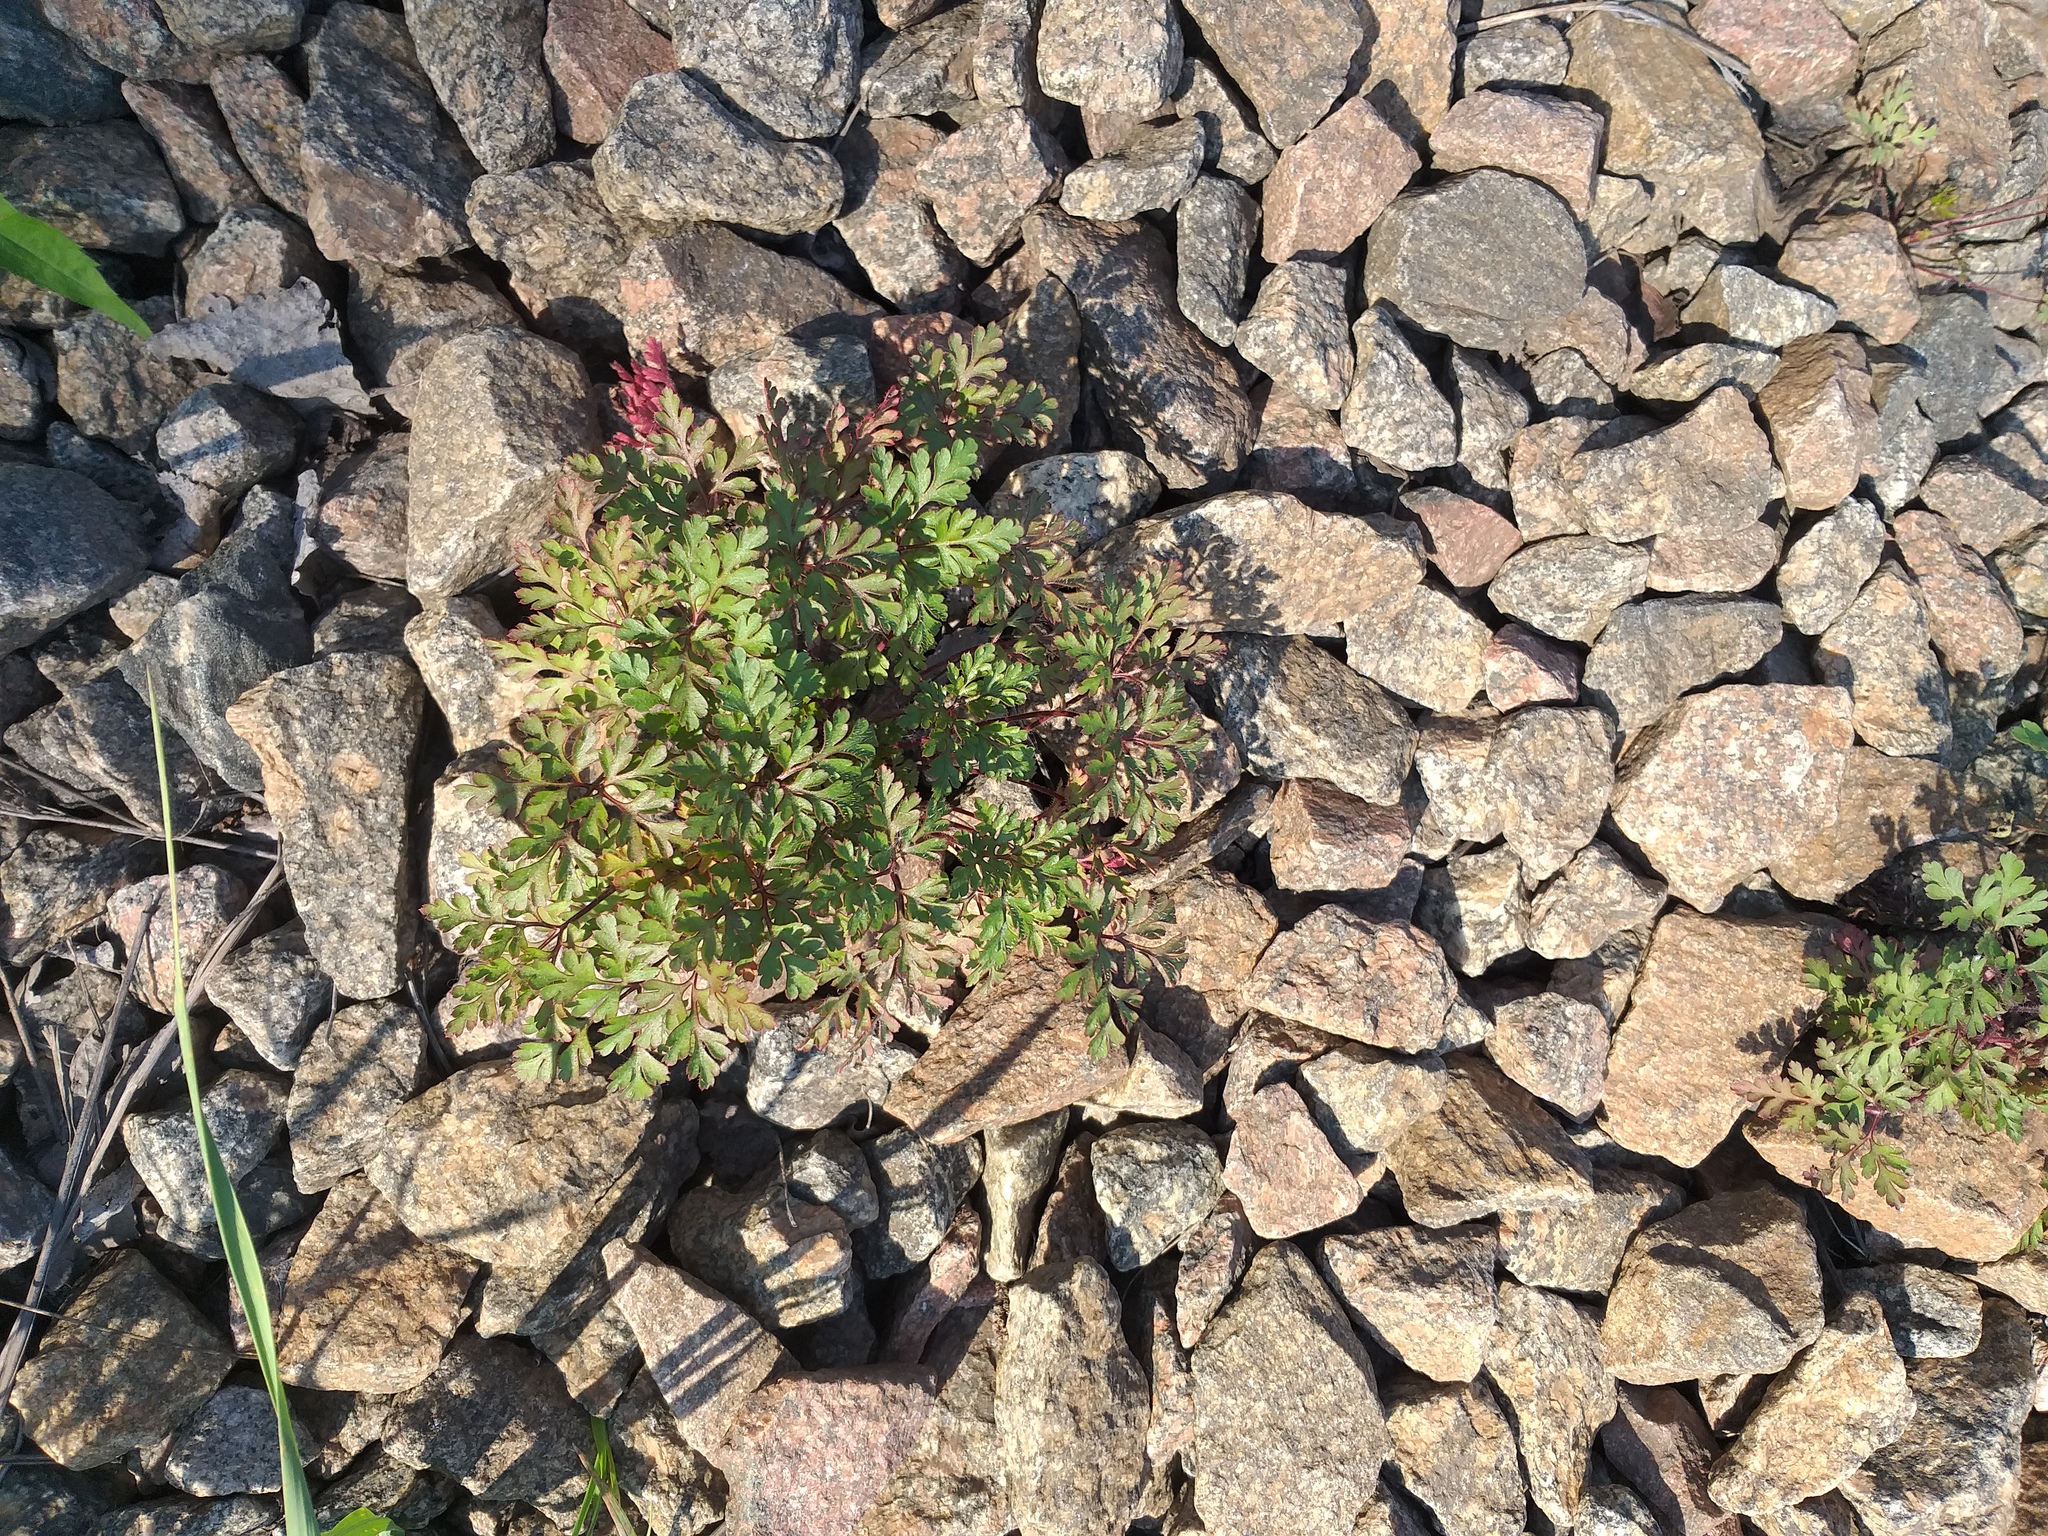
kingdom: Plantae
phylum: Tracheophyta
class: Magnoliopsida
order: Geraniales
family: Geraniaceae
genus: Geranium
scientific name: Geranium robertianum
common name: Herb-robert
